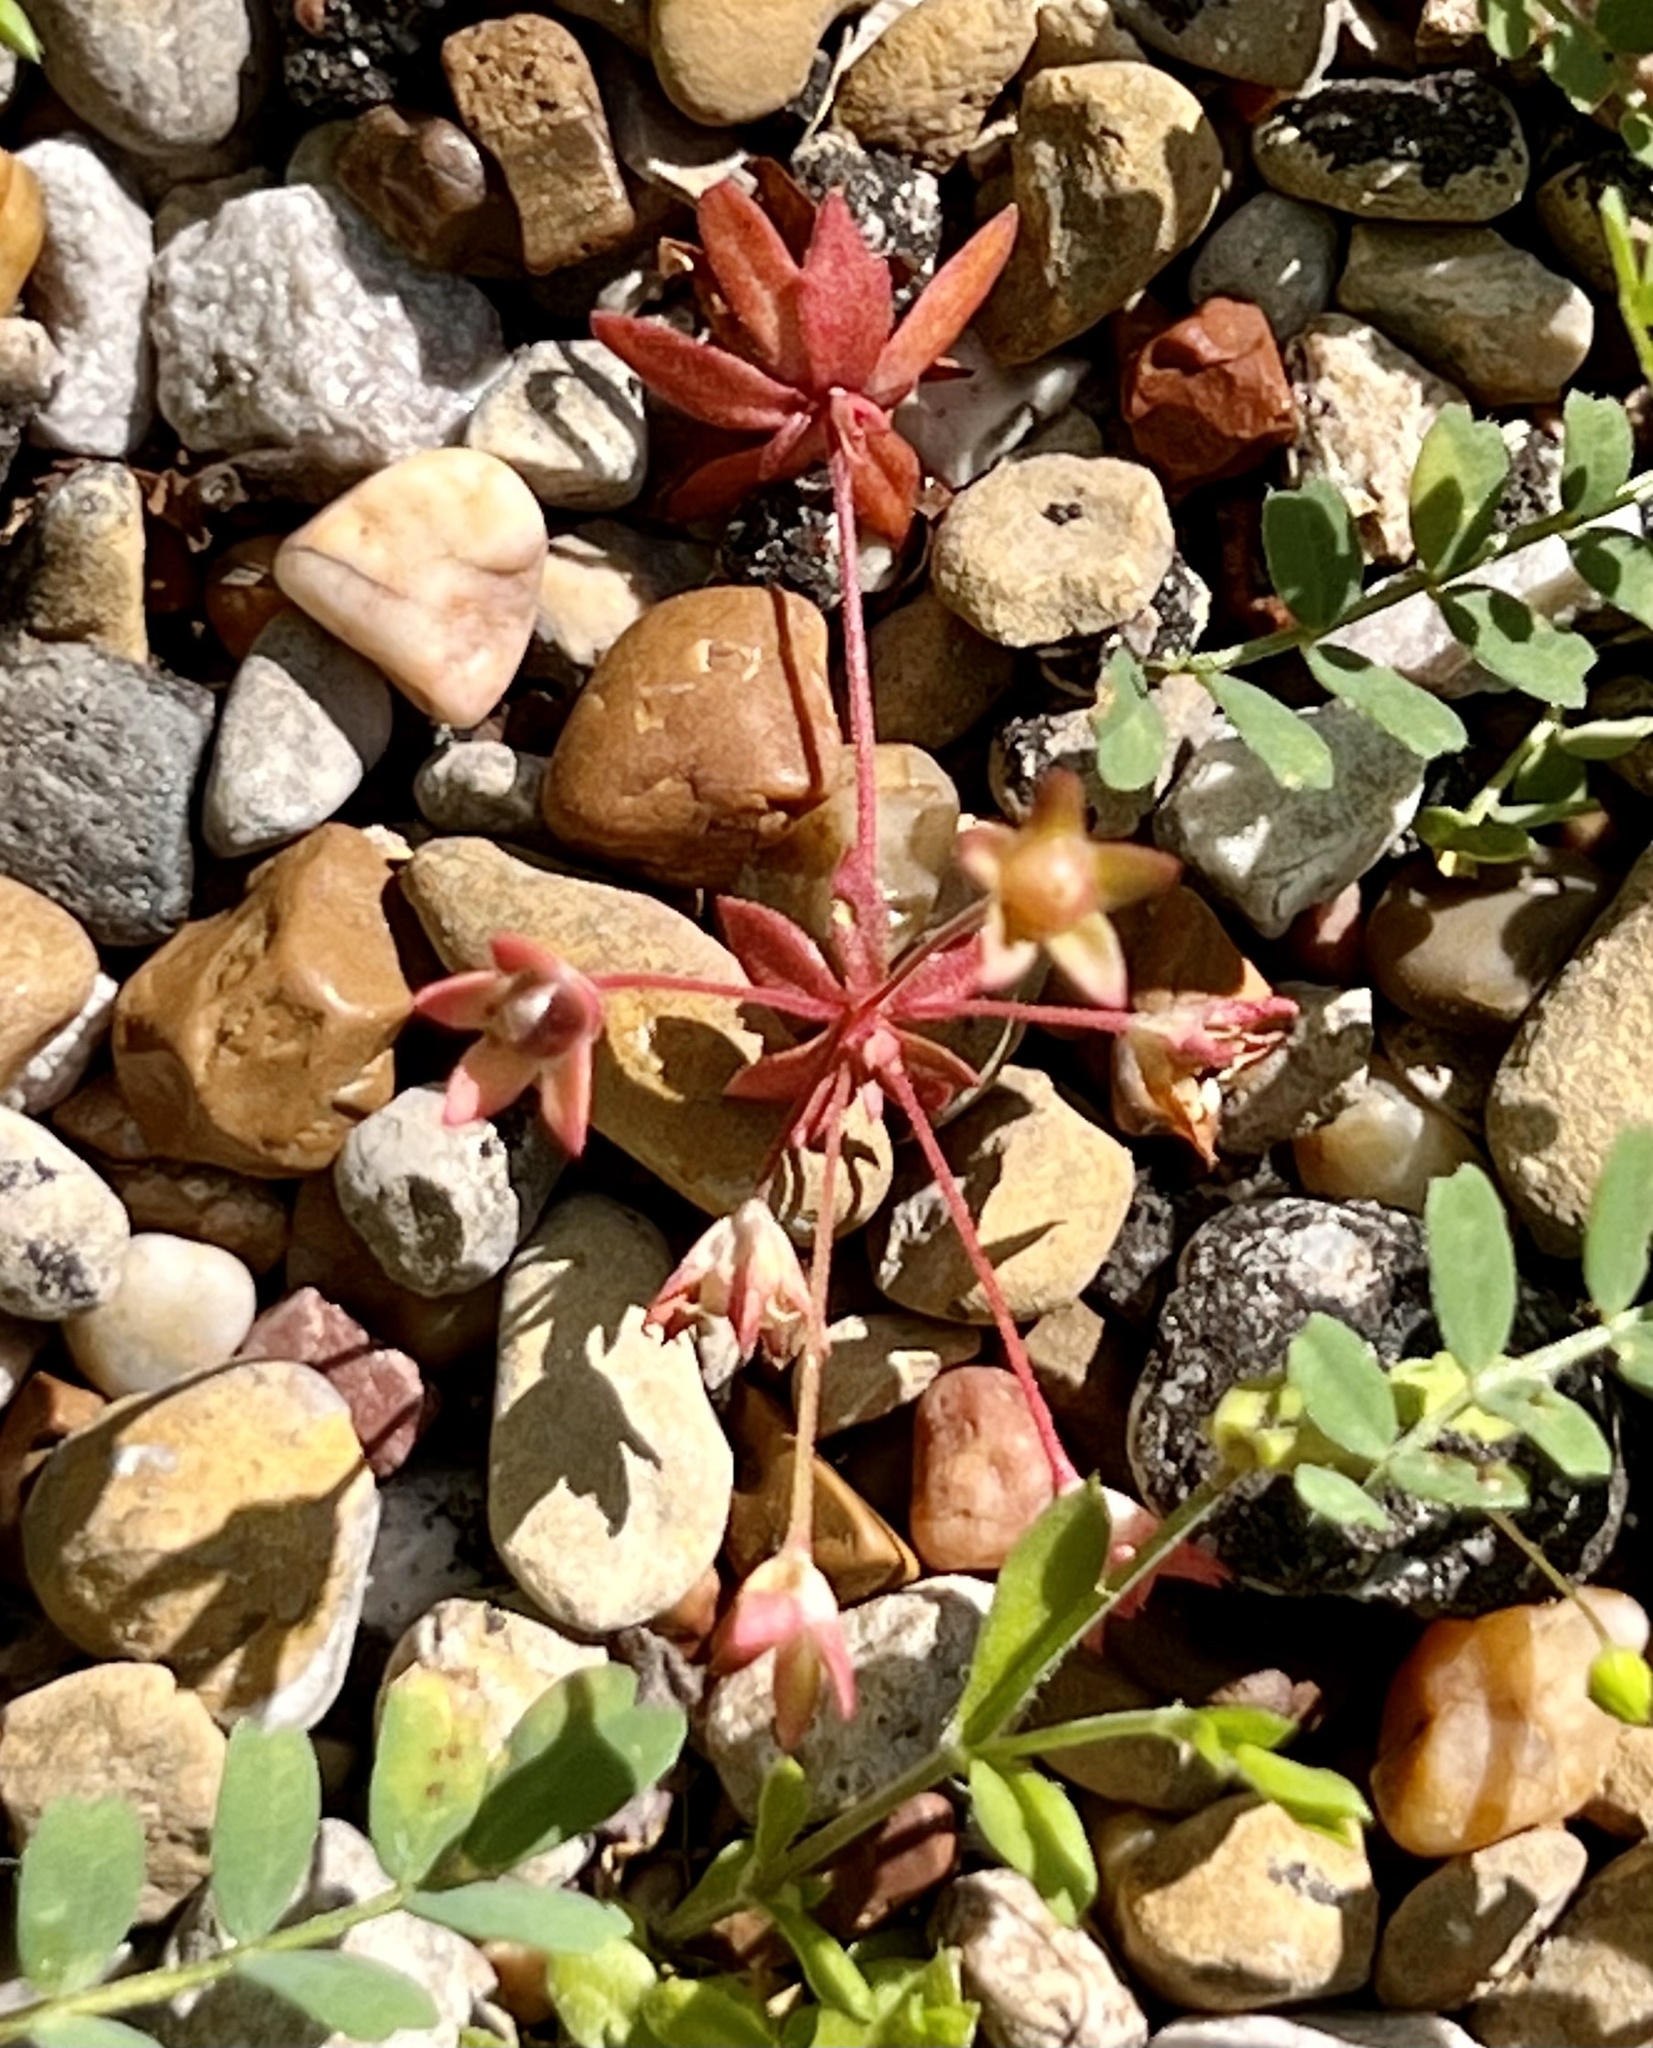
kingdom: Plantae
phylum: Tracheophyta
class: Magnoliopsida
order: Ericales
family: Primulaceae
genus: Androsace
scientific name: Androsace occidentalis
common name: West rock-jasmine
